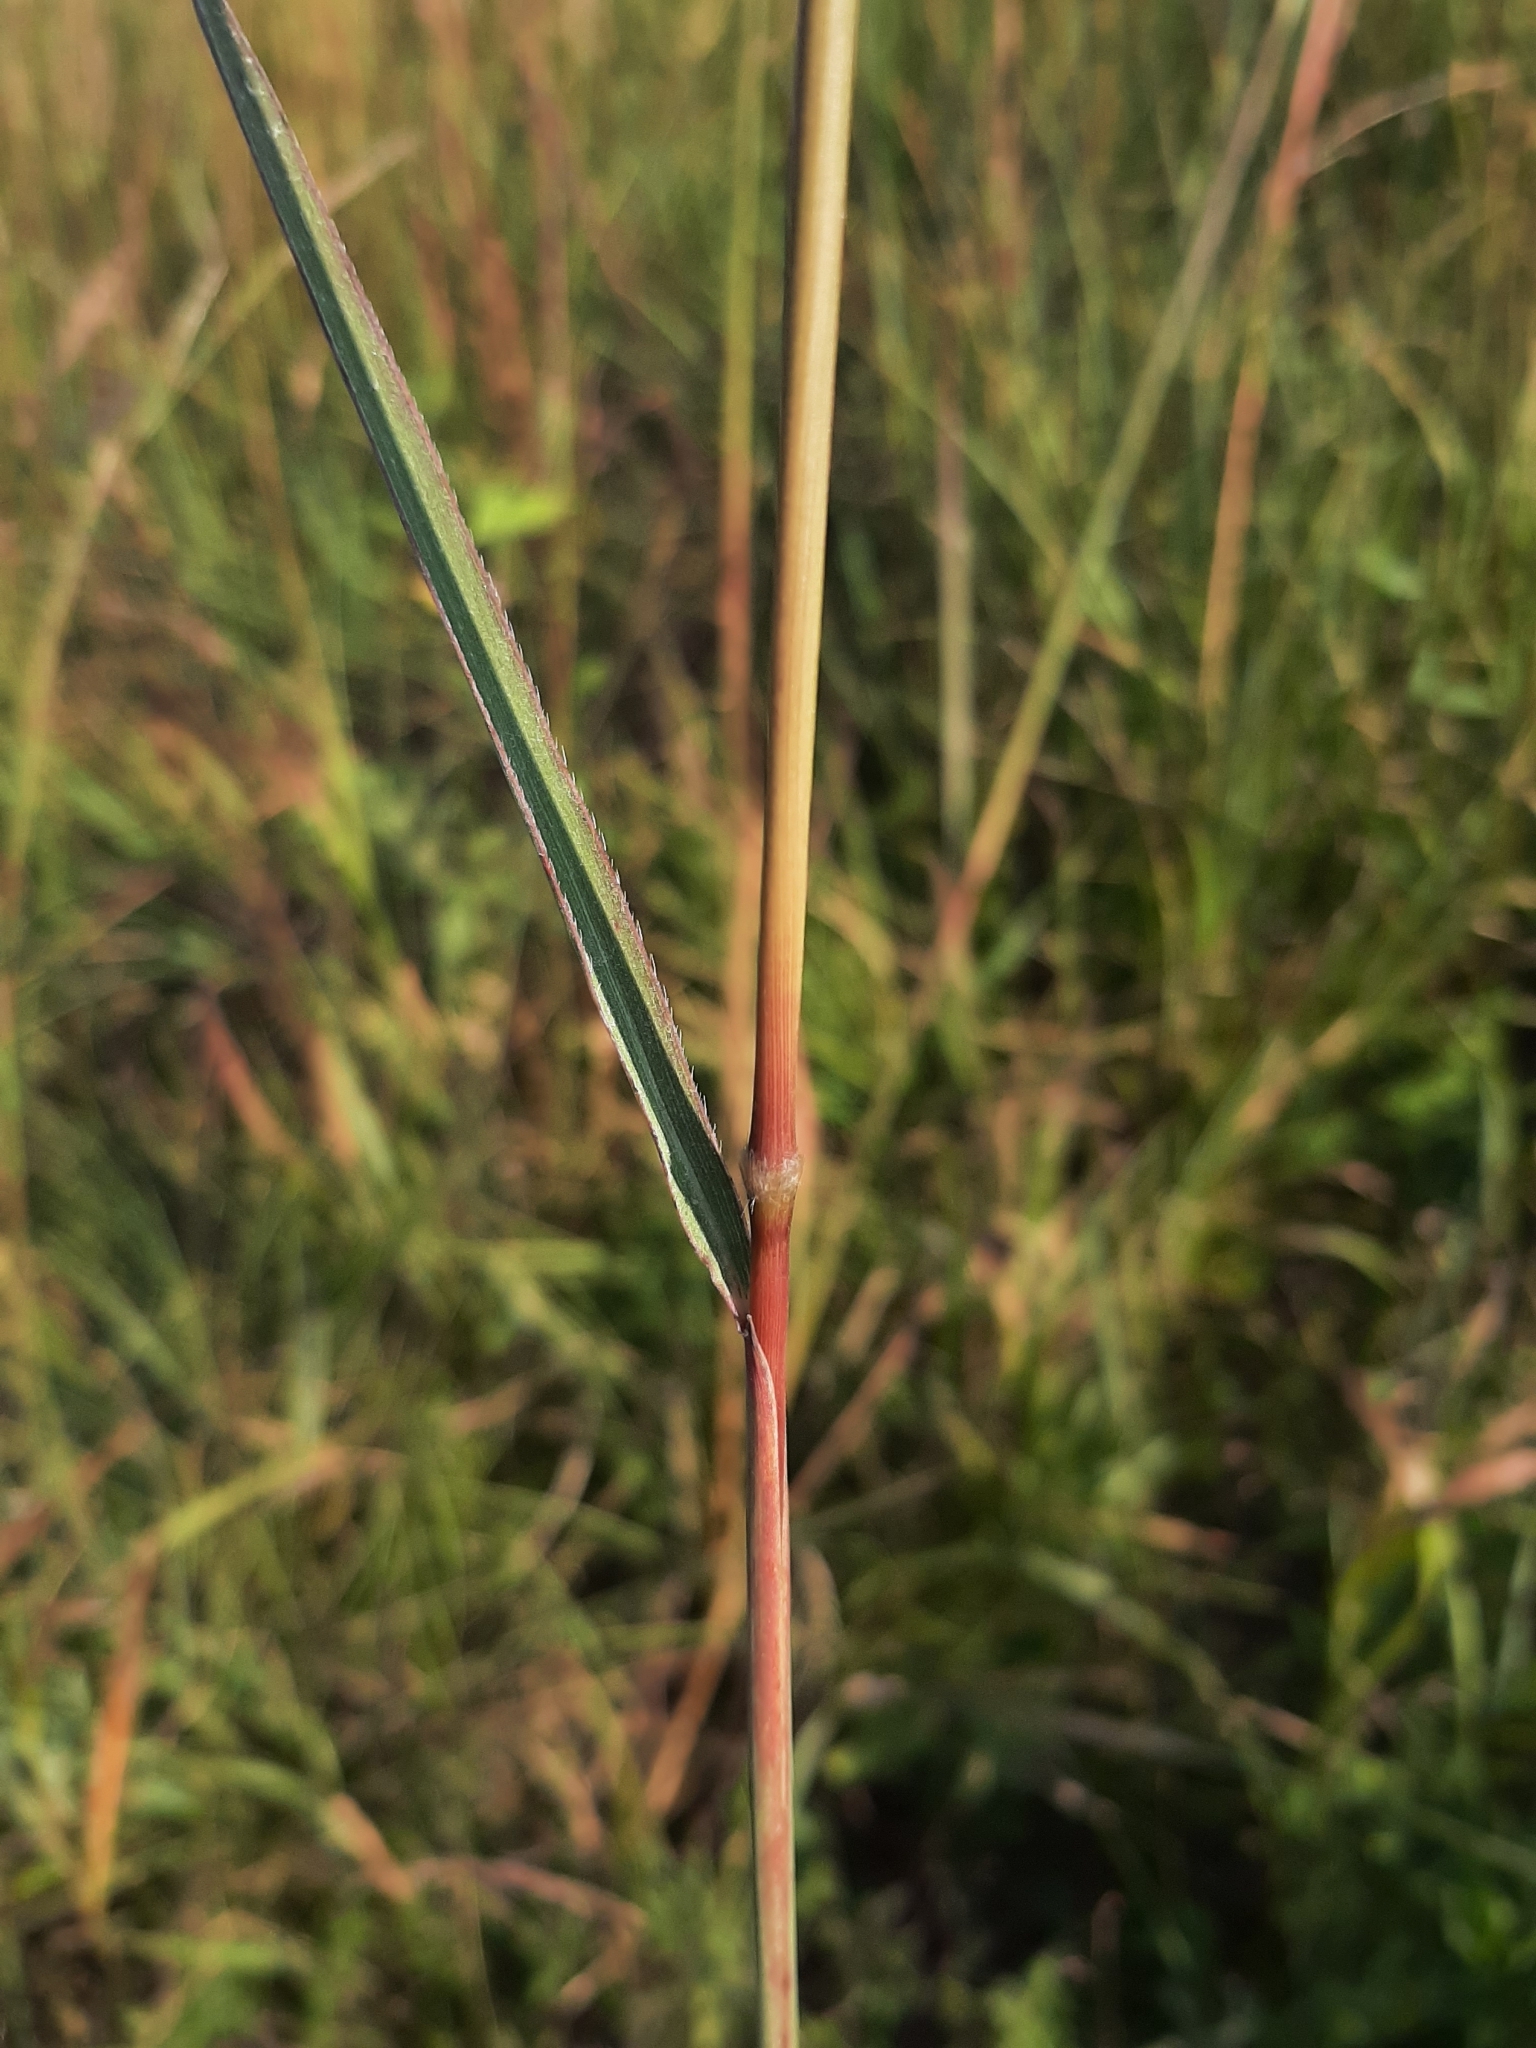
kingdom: Plantae
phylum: Tracheophyta
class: Liliopsida
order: Poales
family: Poaceae
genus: Sorghastrum
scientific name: Sorghastrum nutans
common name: Indian grass
